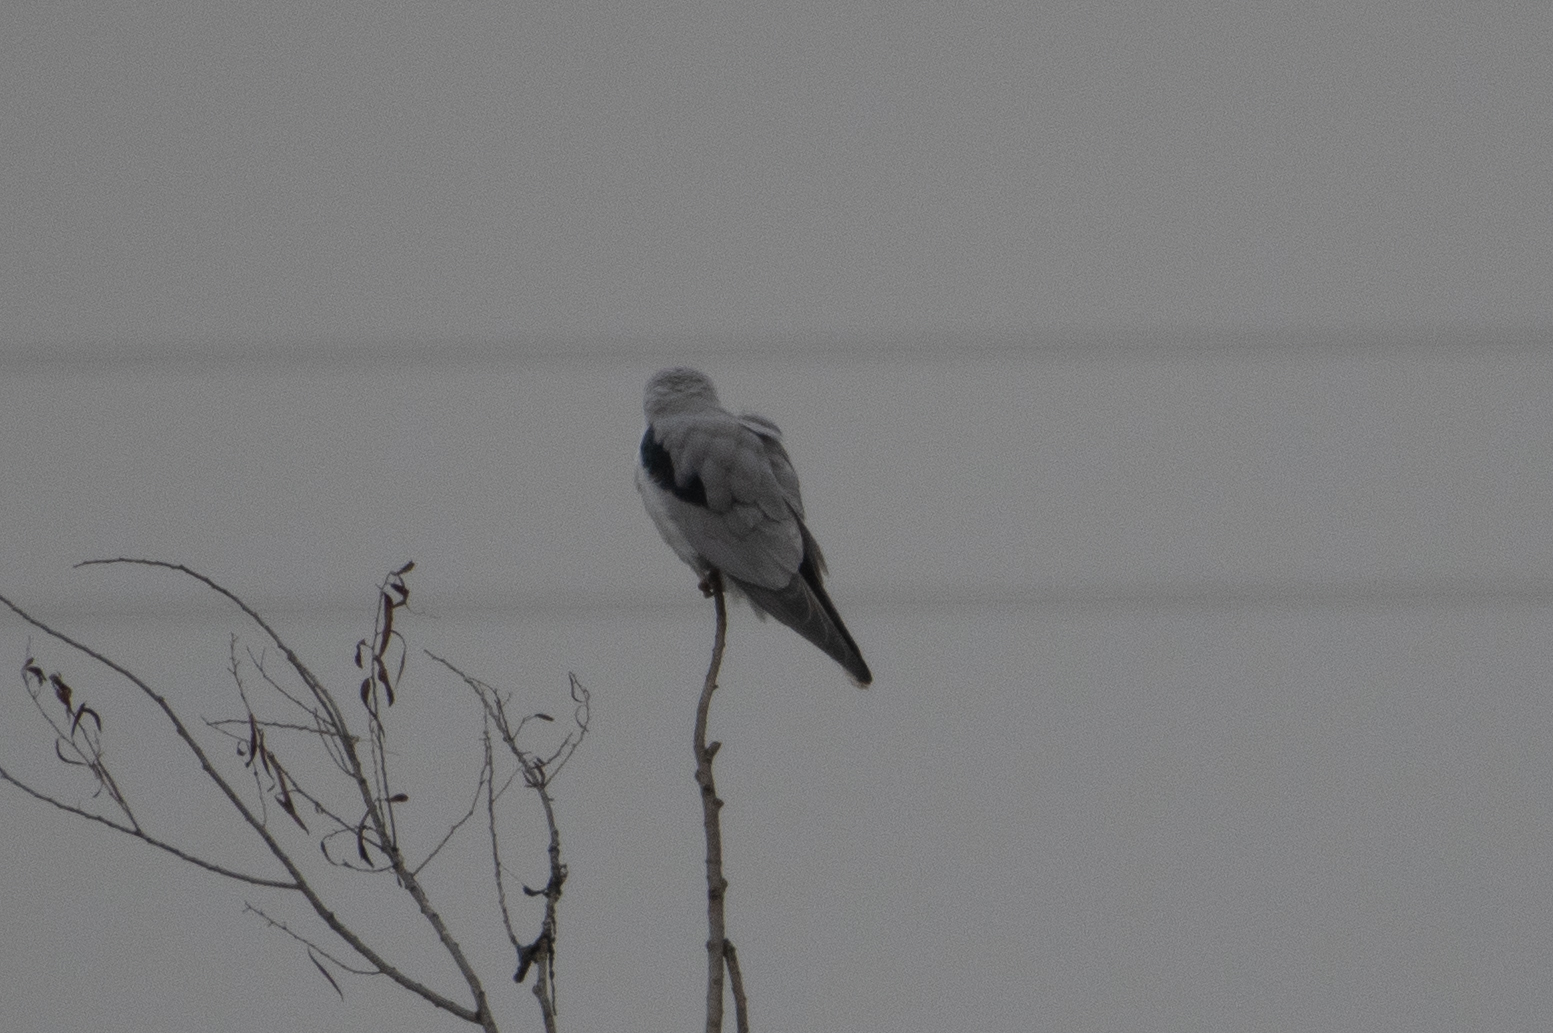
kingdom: Animalia
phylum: Chordata
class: Aves
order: Accipitriformes
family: Accipitridae
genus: Elanus
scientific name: Elanus leucurus
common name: White-tailed kite
